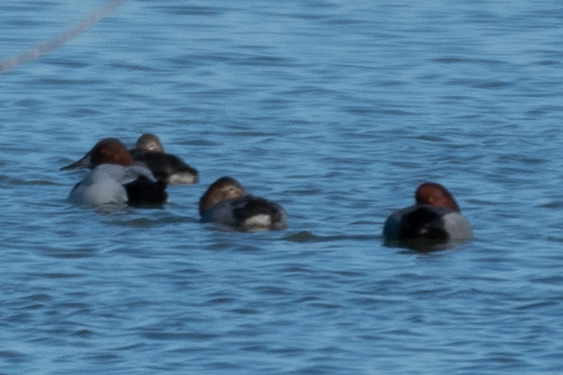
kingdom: Animalia
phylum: Chordata
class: Aves
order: Anseriformes
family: Anatidae
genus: Aythya
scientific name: Aythya valisineria
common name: Canvasback
